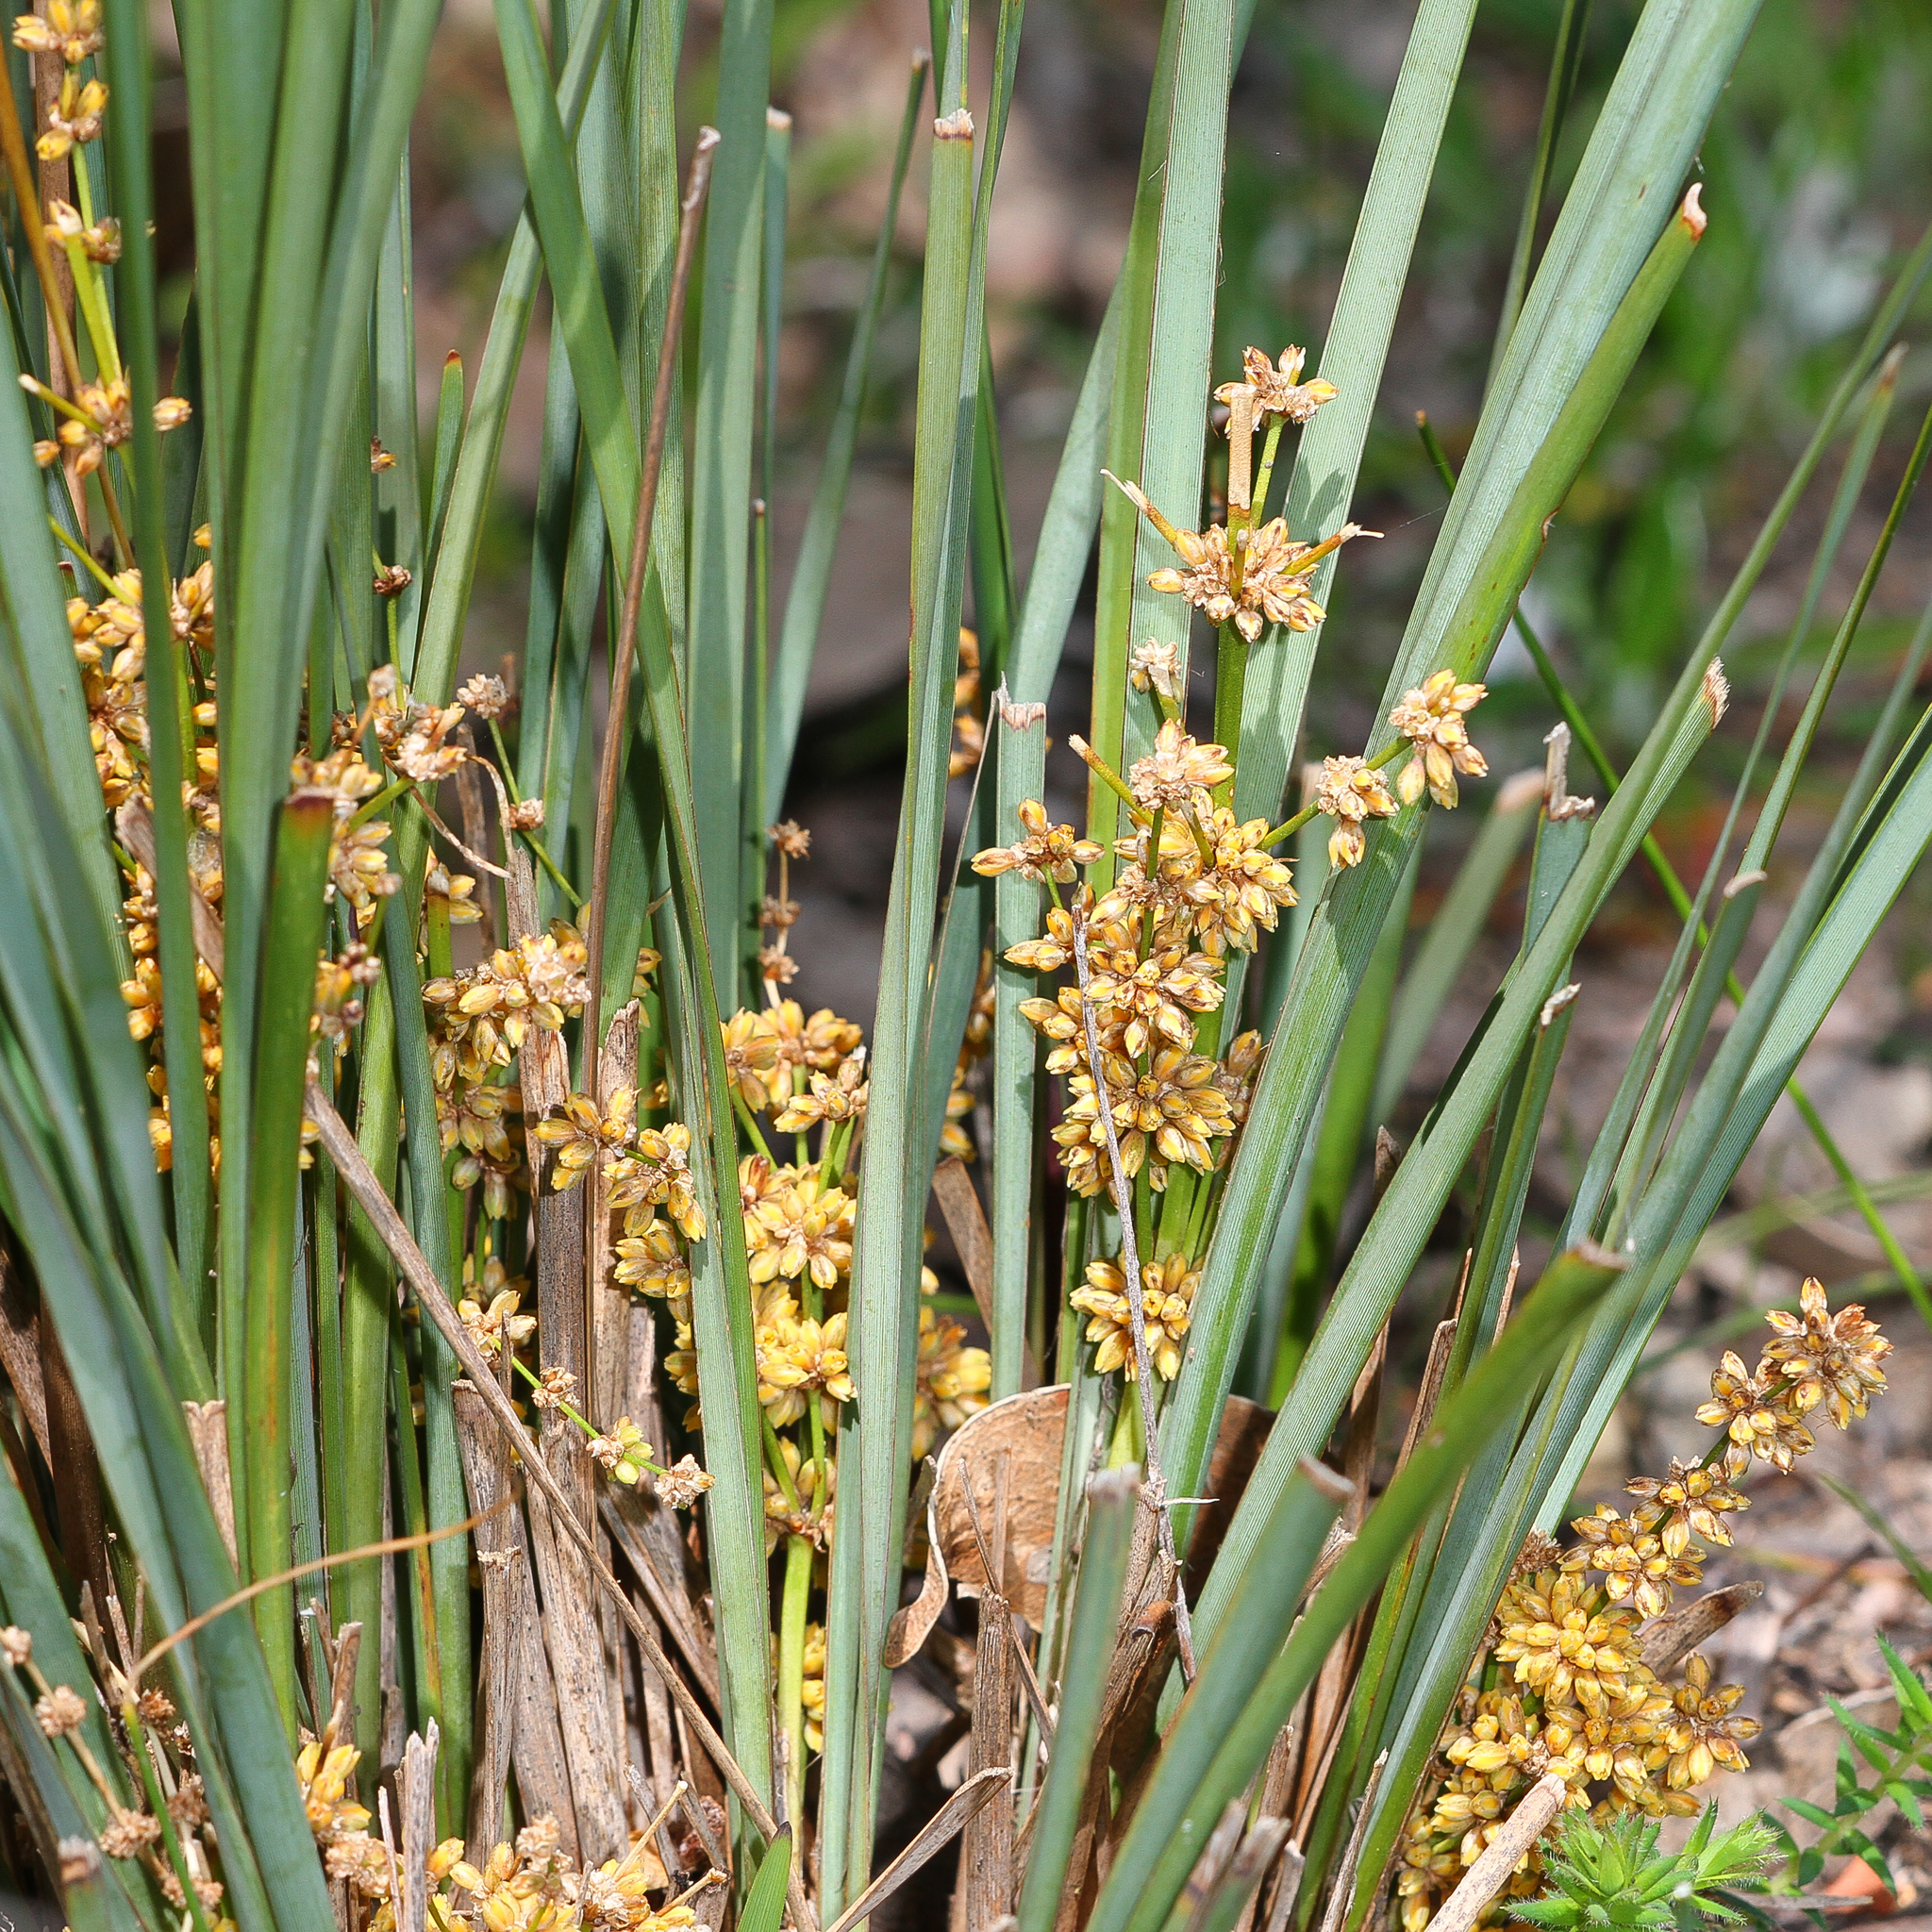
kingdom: Plantae
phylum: Tracheophyta
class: Liliopsida
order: Asparagales
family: Asparagaceae
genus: Lomandra
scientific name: Lomandra multiflora
